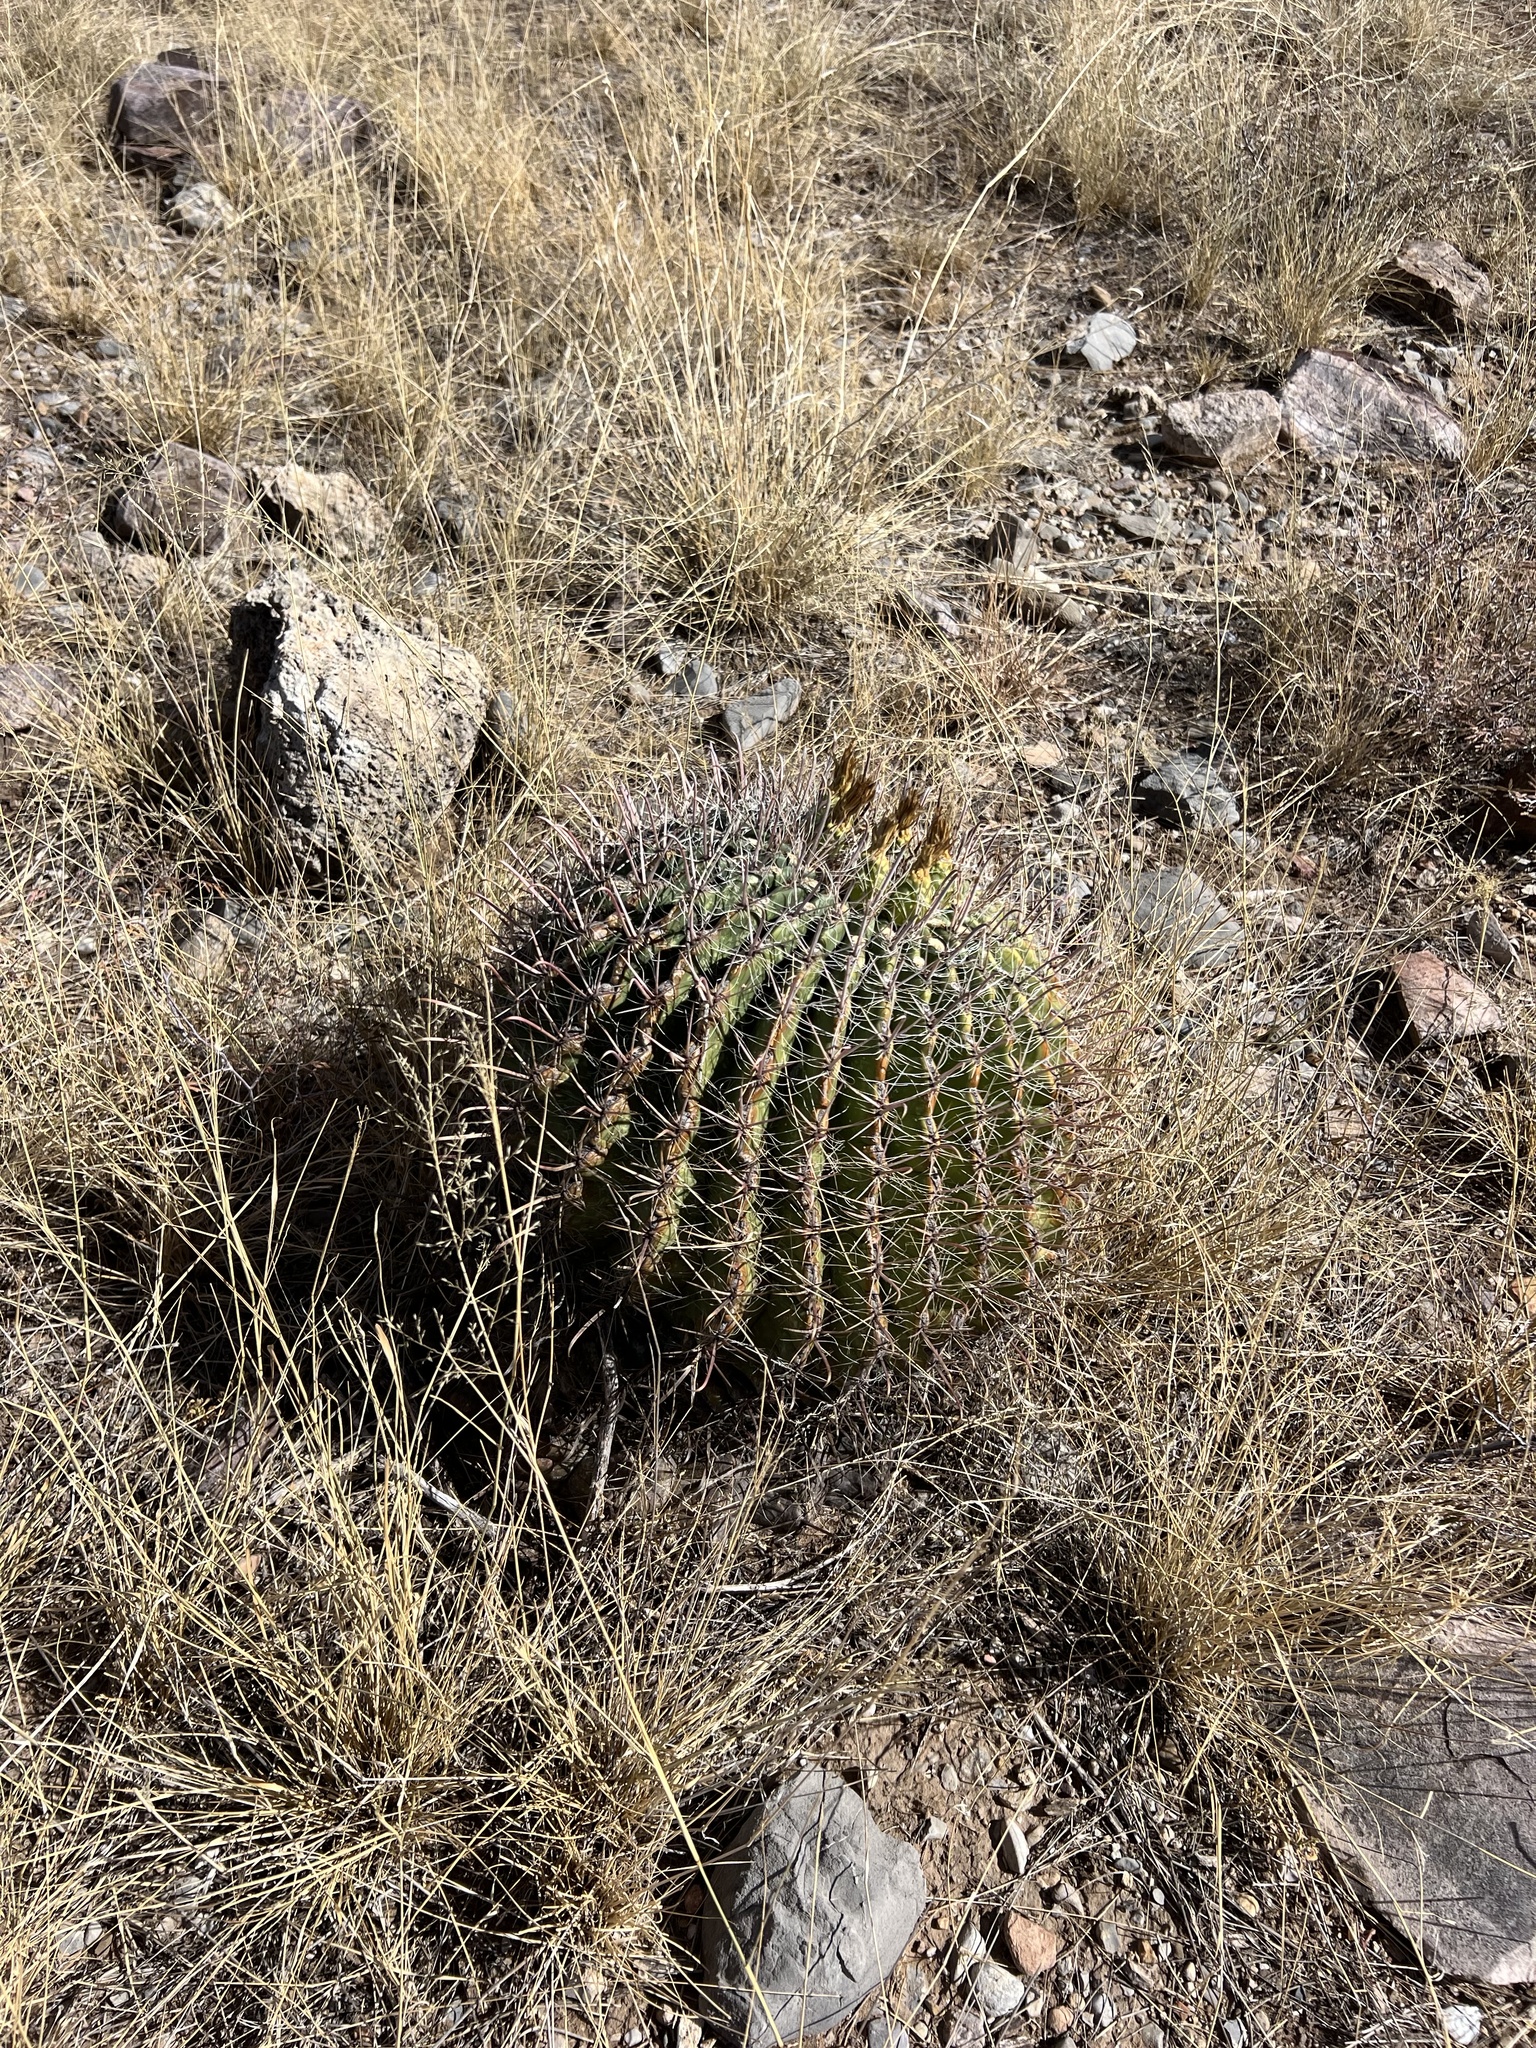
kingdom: Plantae
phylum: Tracheophyta
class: Magnoliopsida
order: Caryophyllales
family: Cactaceae
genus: Ferocactus
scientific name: Ferocactus wislizeni
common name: Candy barrel cactus
